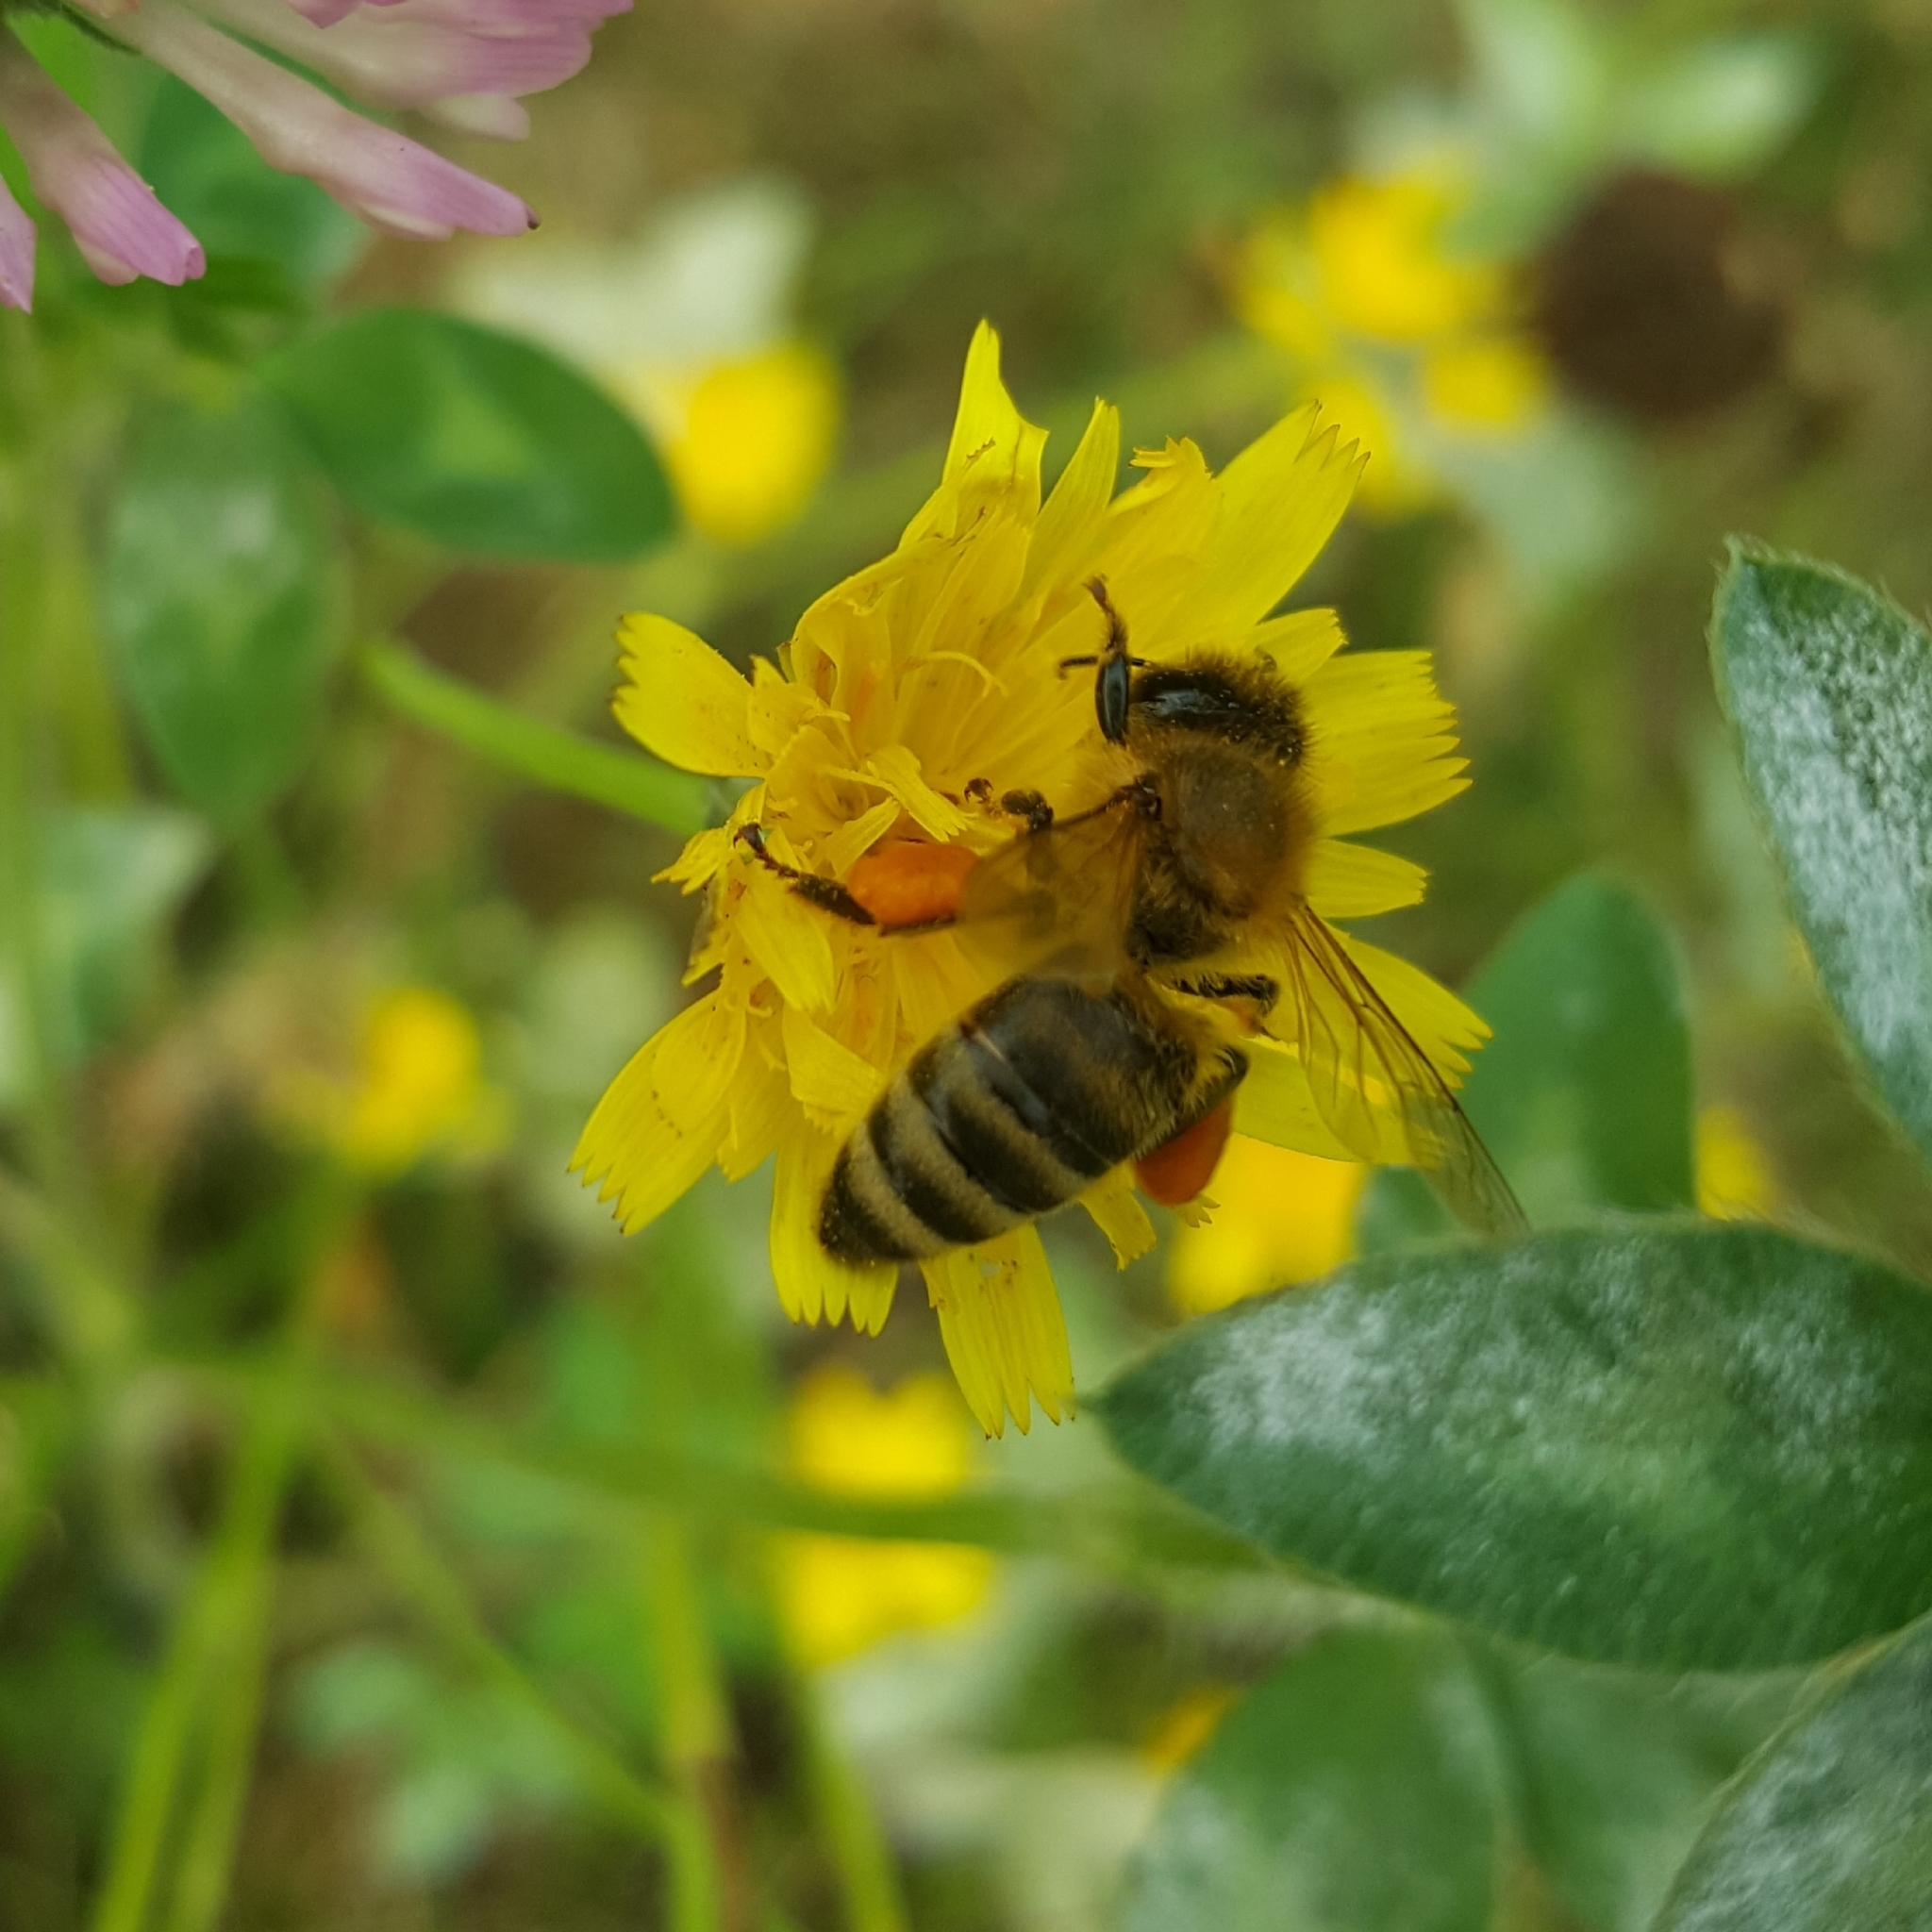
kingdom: Animalia
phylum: Arthropoda
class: Insecta
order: Hymenoptera
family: Apidae
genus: Apis
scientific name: Apis mellifera
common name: Honey bee
